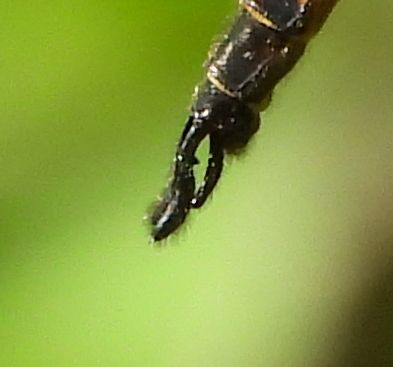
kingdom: Animalia
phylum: Arthropoda
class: Insecta
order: Odonata
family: Corduliidae
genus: Epitheca
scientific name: Epitheca spinigera
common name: Spiny baskettail
